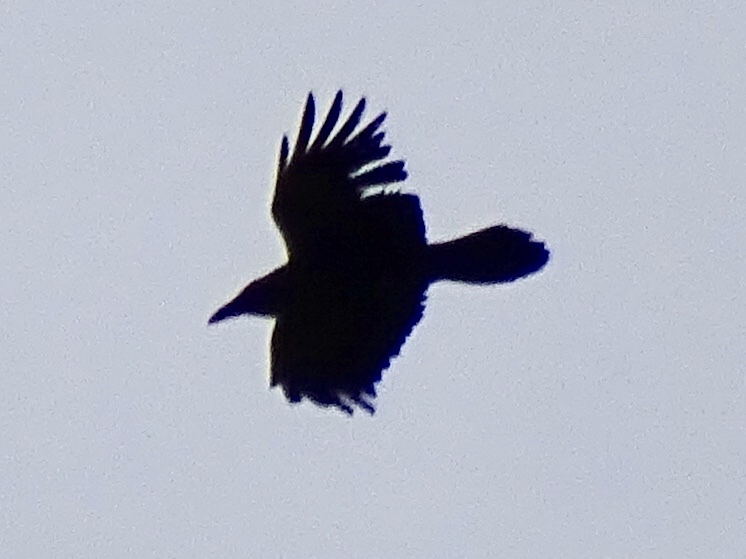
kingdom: Animalia
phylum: Chordata
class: Aves
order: Passeriformes
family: Corvidae
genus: Corvus
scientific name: Corvus cryptoleucus
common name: Chihuahuan raven
